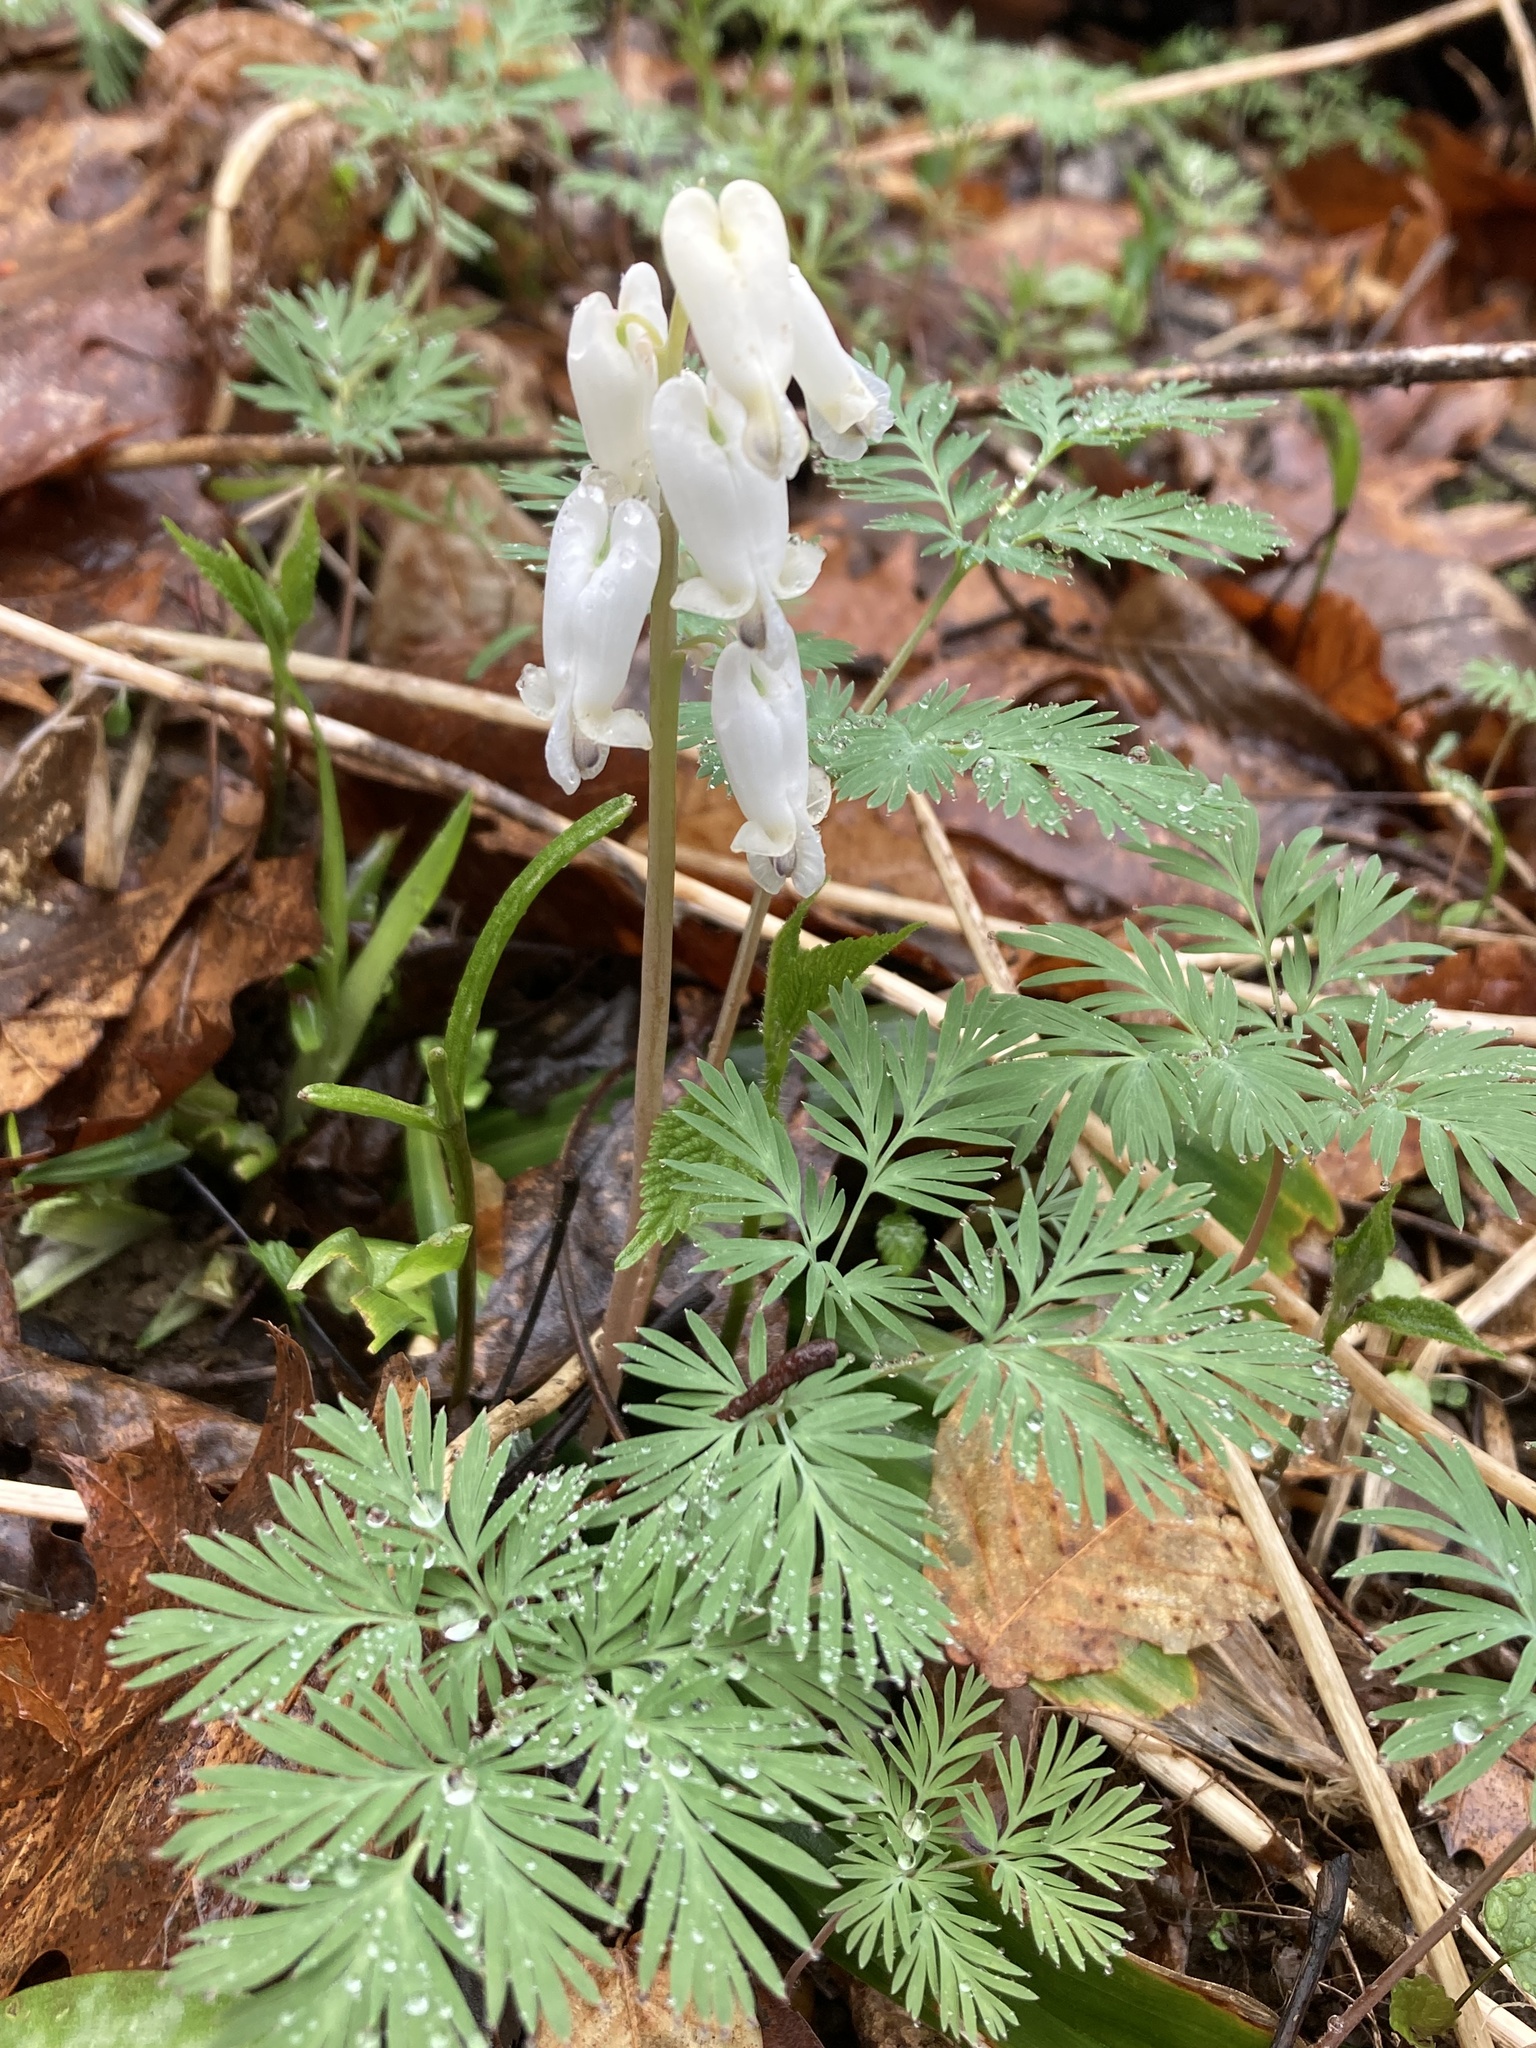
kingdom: Plantae
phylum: Tracheophyta
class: Magnoliopsida
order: Ranunculales
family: Papaveraceae
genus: Dicentra
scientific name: Dicentra canadensis
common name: Squirrel-corn
